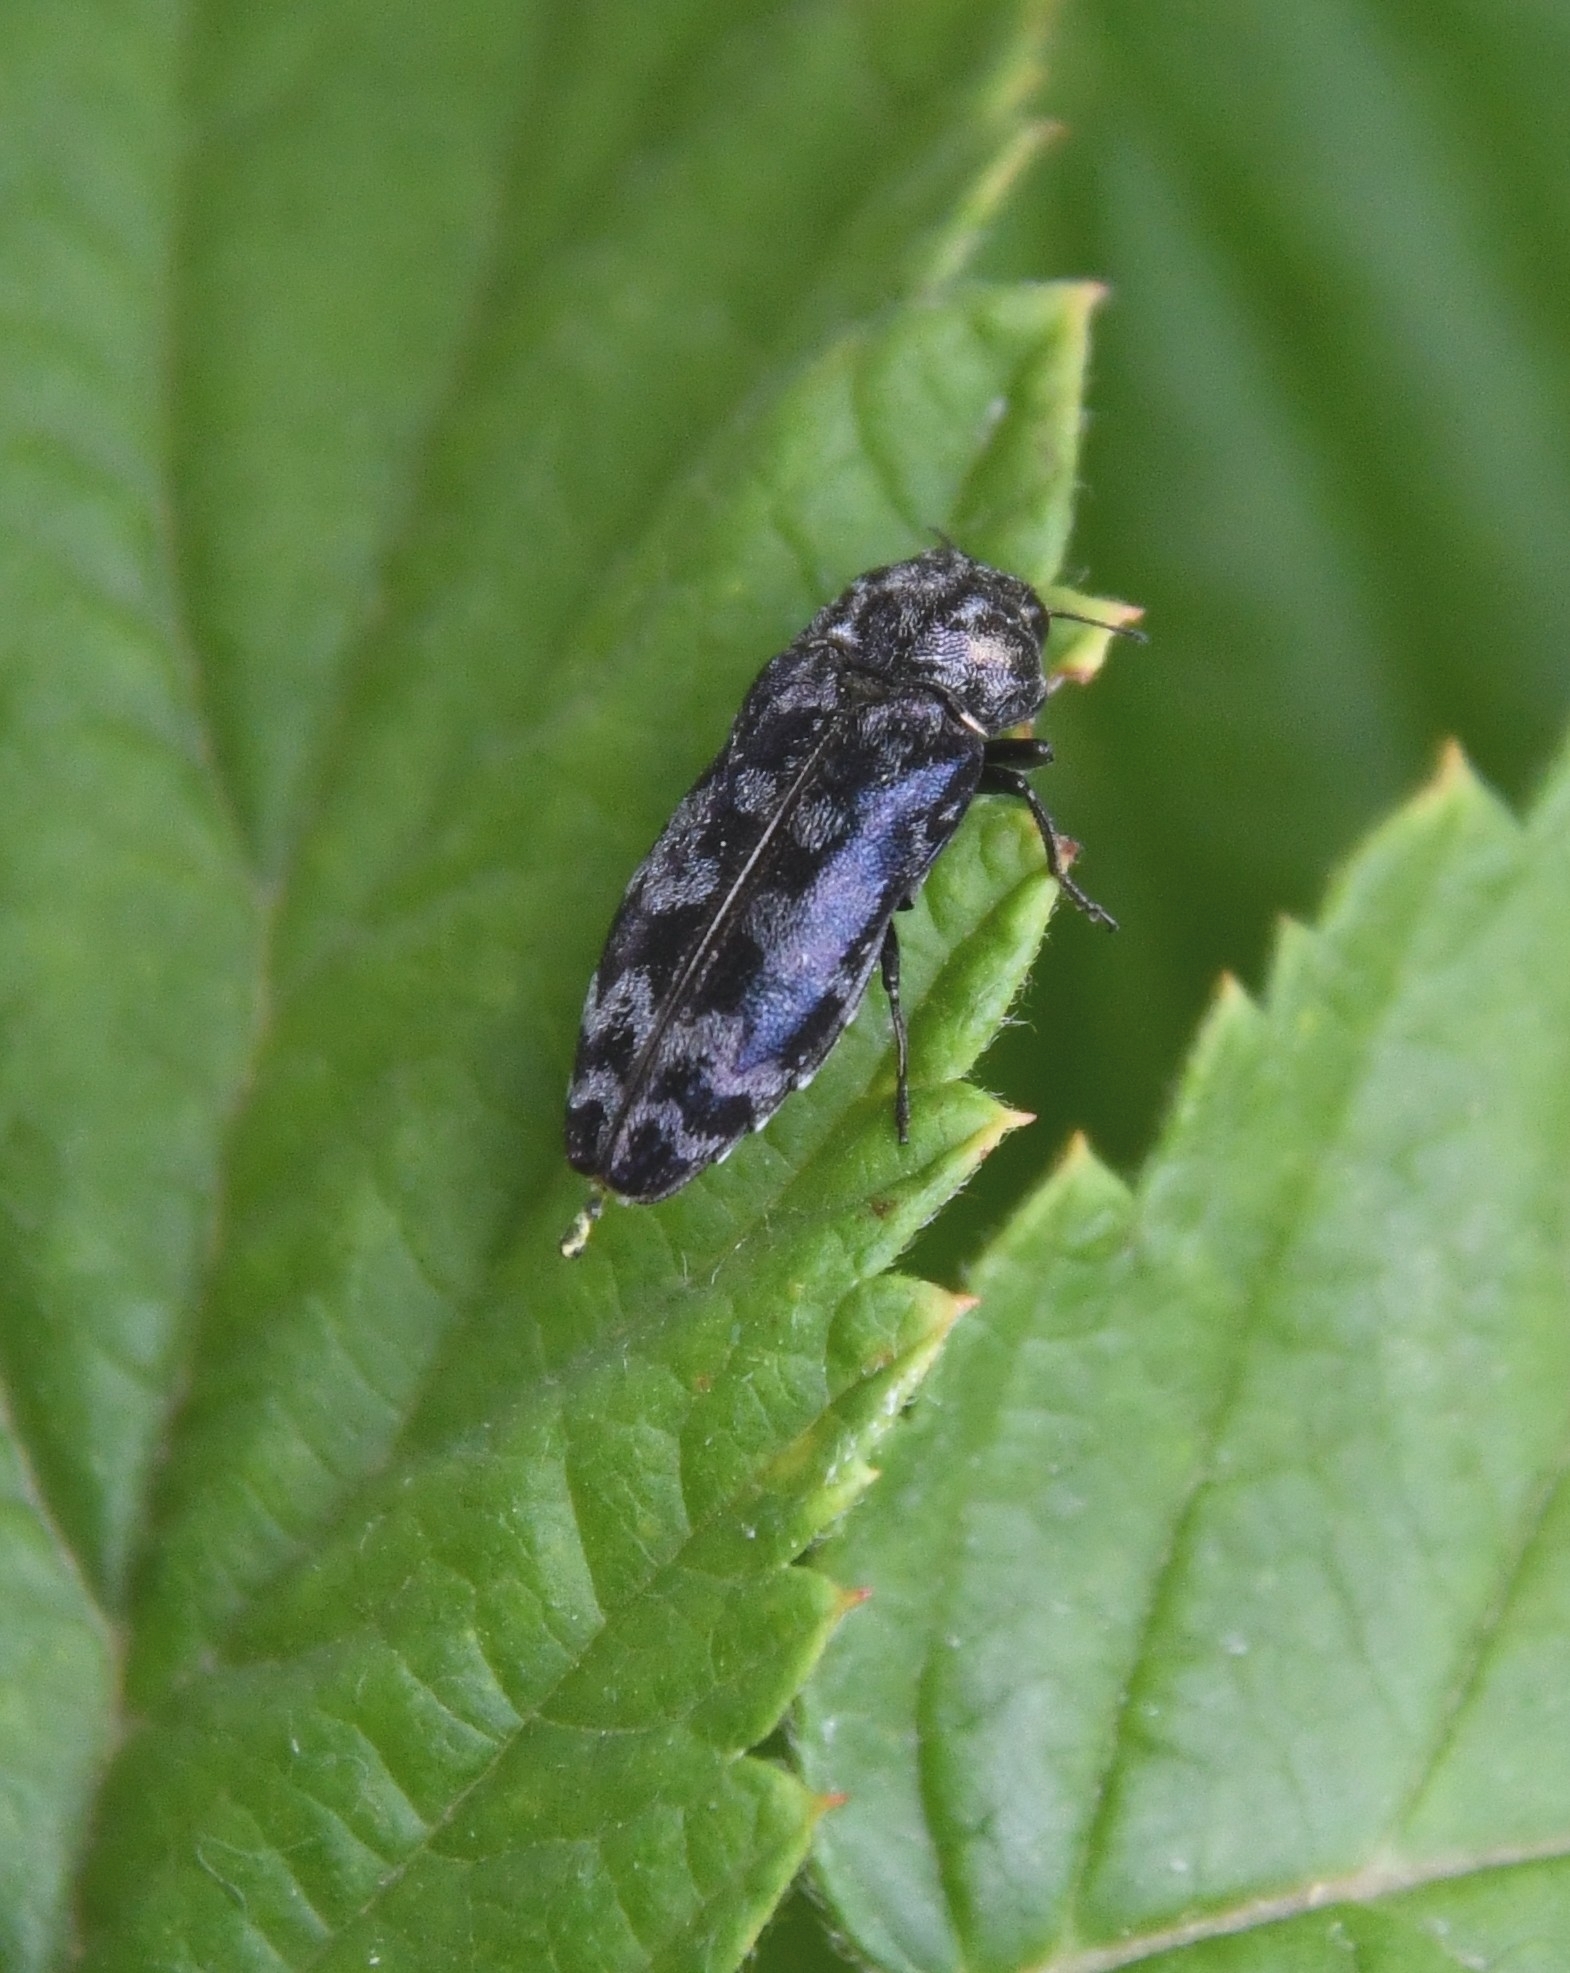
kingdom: Animalia
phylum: Arthropoda
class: Insecta
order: Coleoptera
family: Buprestidae
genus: Coraebus
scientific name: Coraebus rubi
